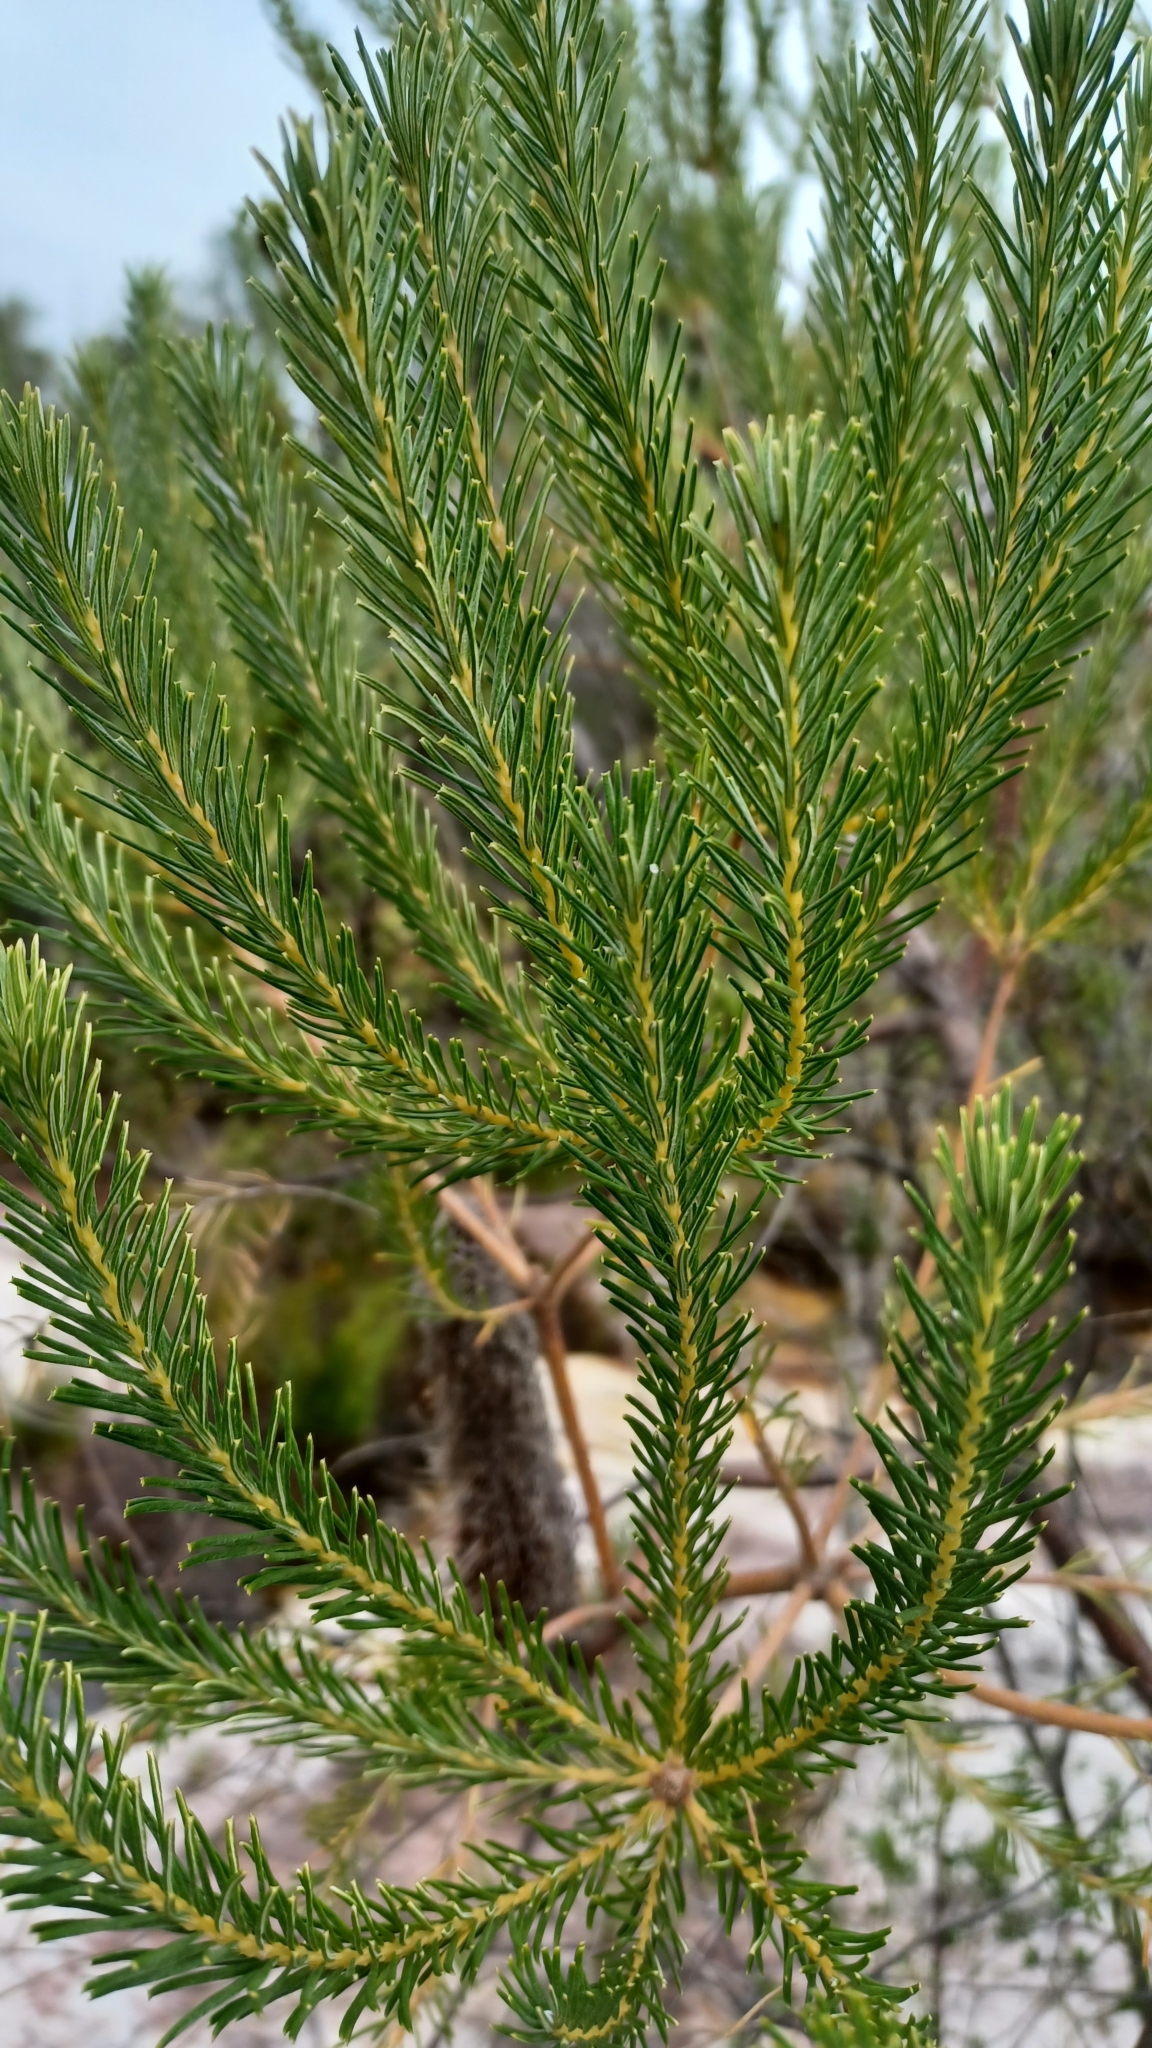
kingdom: Plantae
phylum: Tracheophyta
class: Magnoliopsida
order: Proteales
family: Proteaceae
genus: Banksia
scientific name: Banksia ericifolia
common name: Heath-leaf banksia
